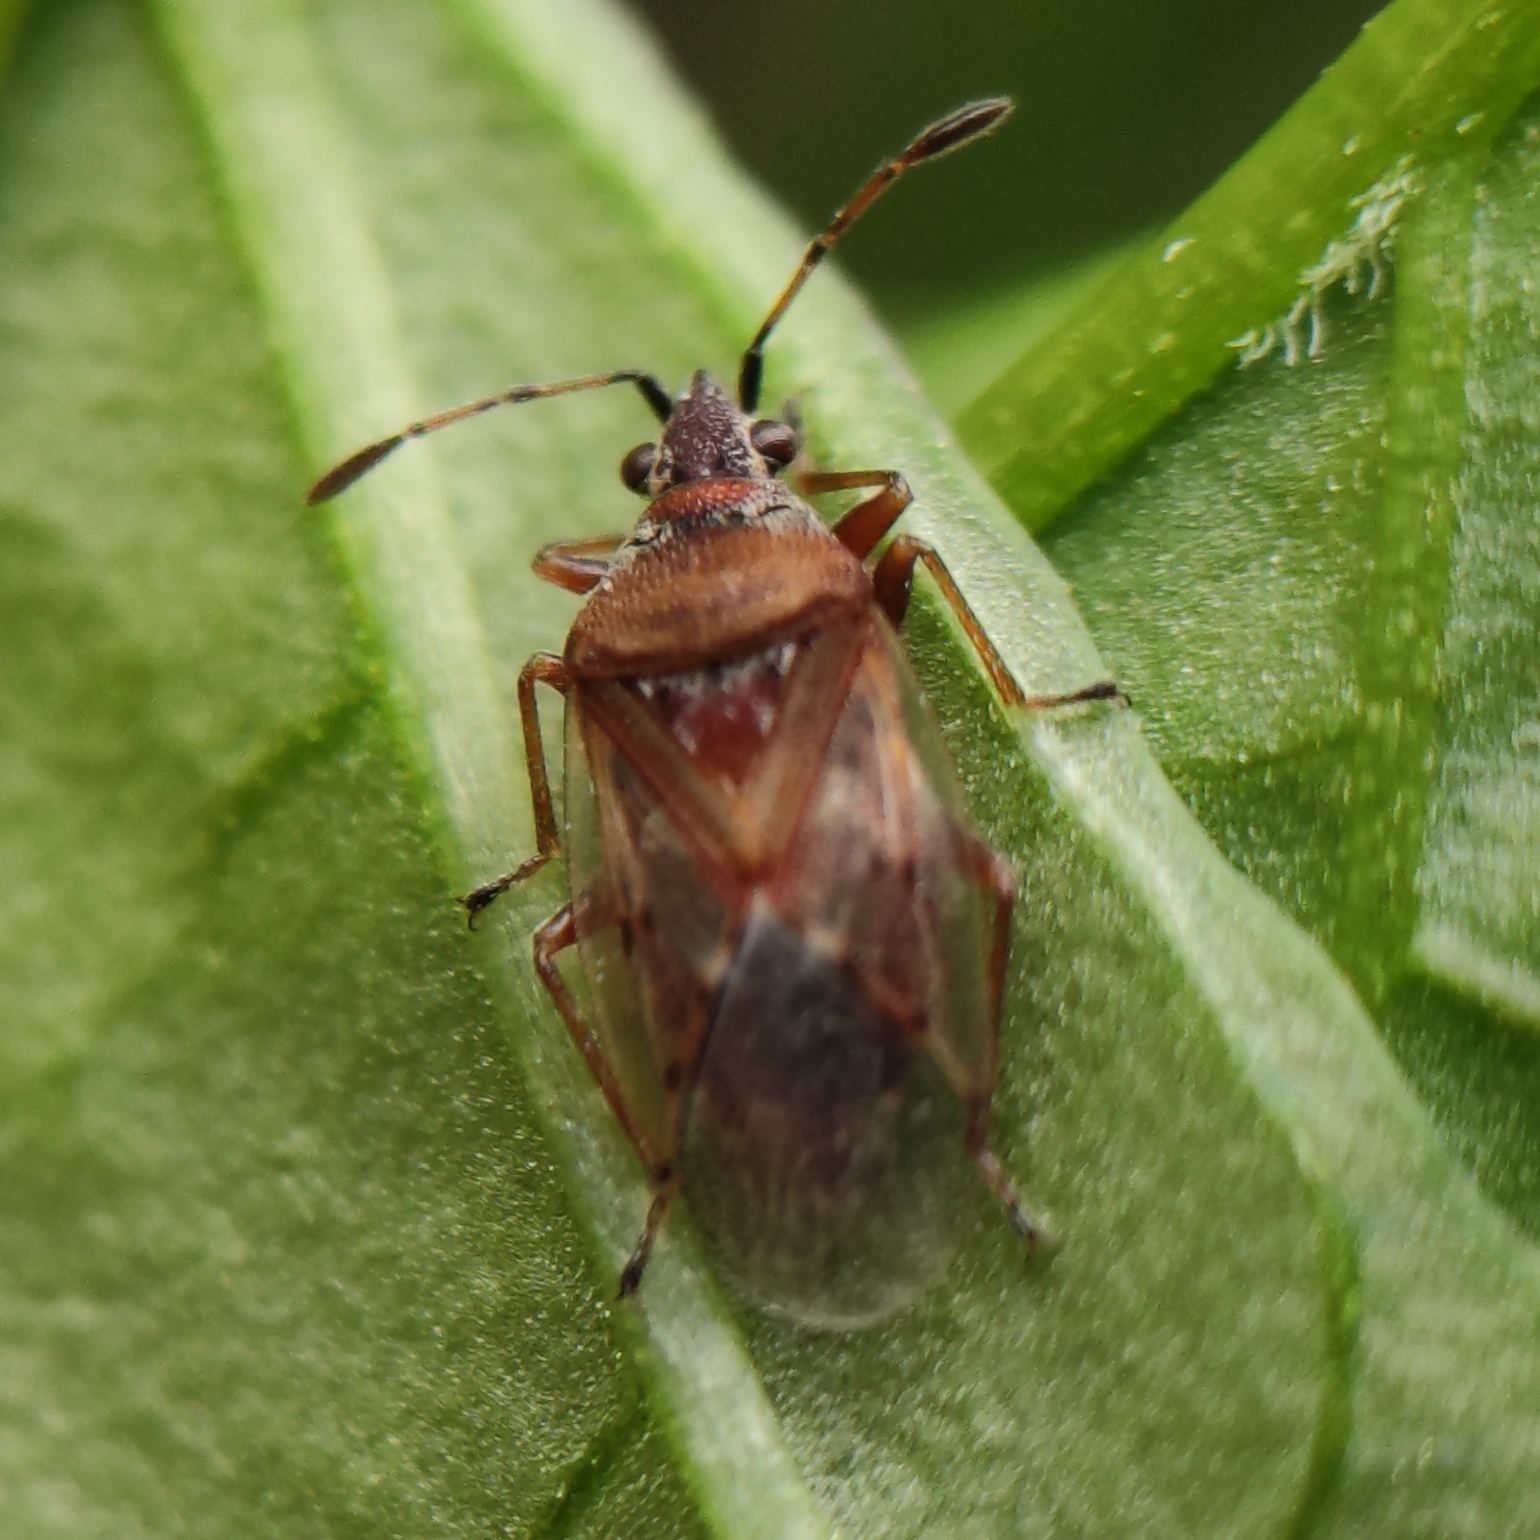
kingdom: Animalia
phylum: Arthropoda
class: Insecta
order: Hemiptera
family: Lygaeidae
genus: Kleidocerys
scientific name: Kleidocerys resedae
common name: Birch catkin bug
